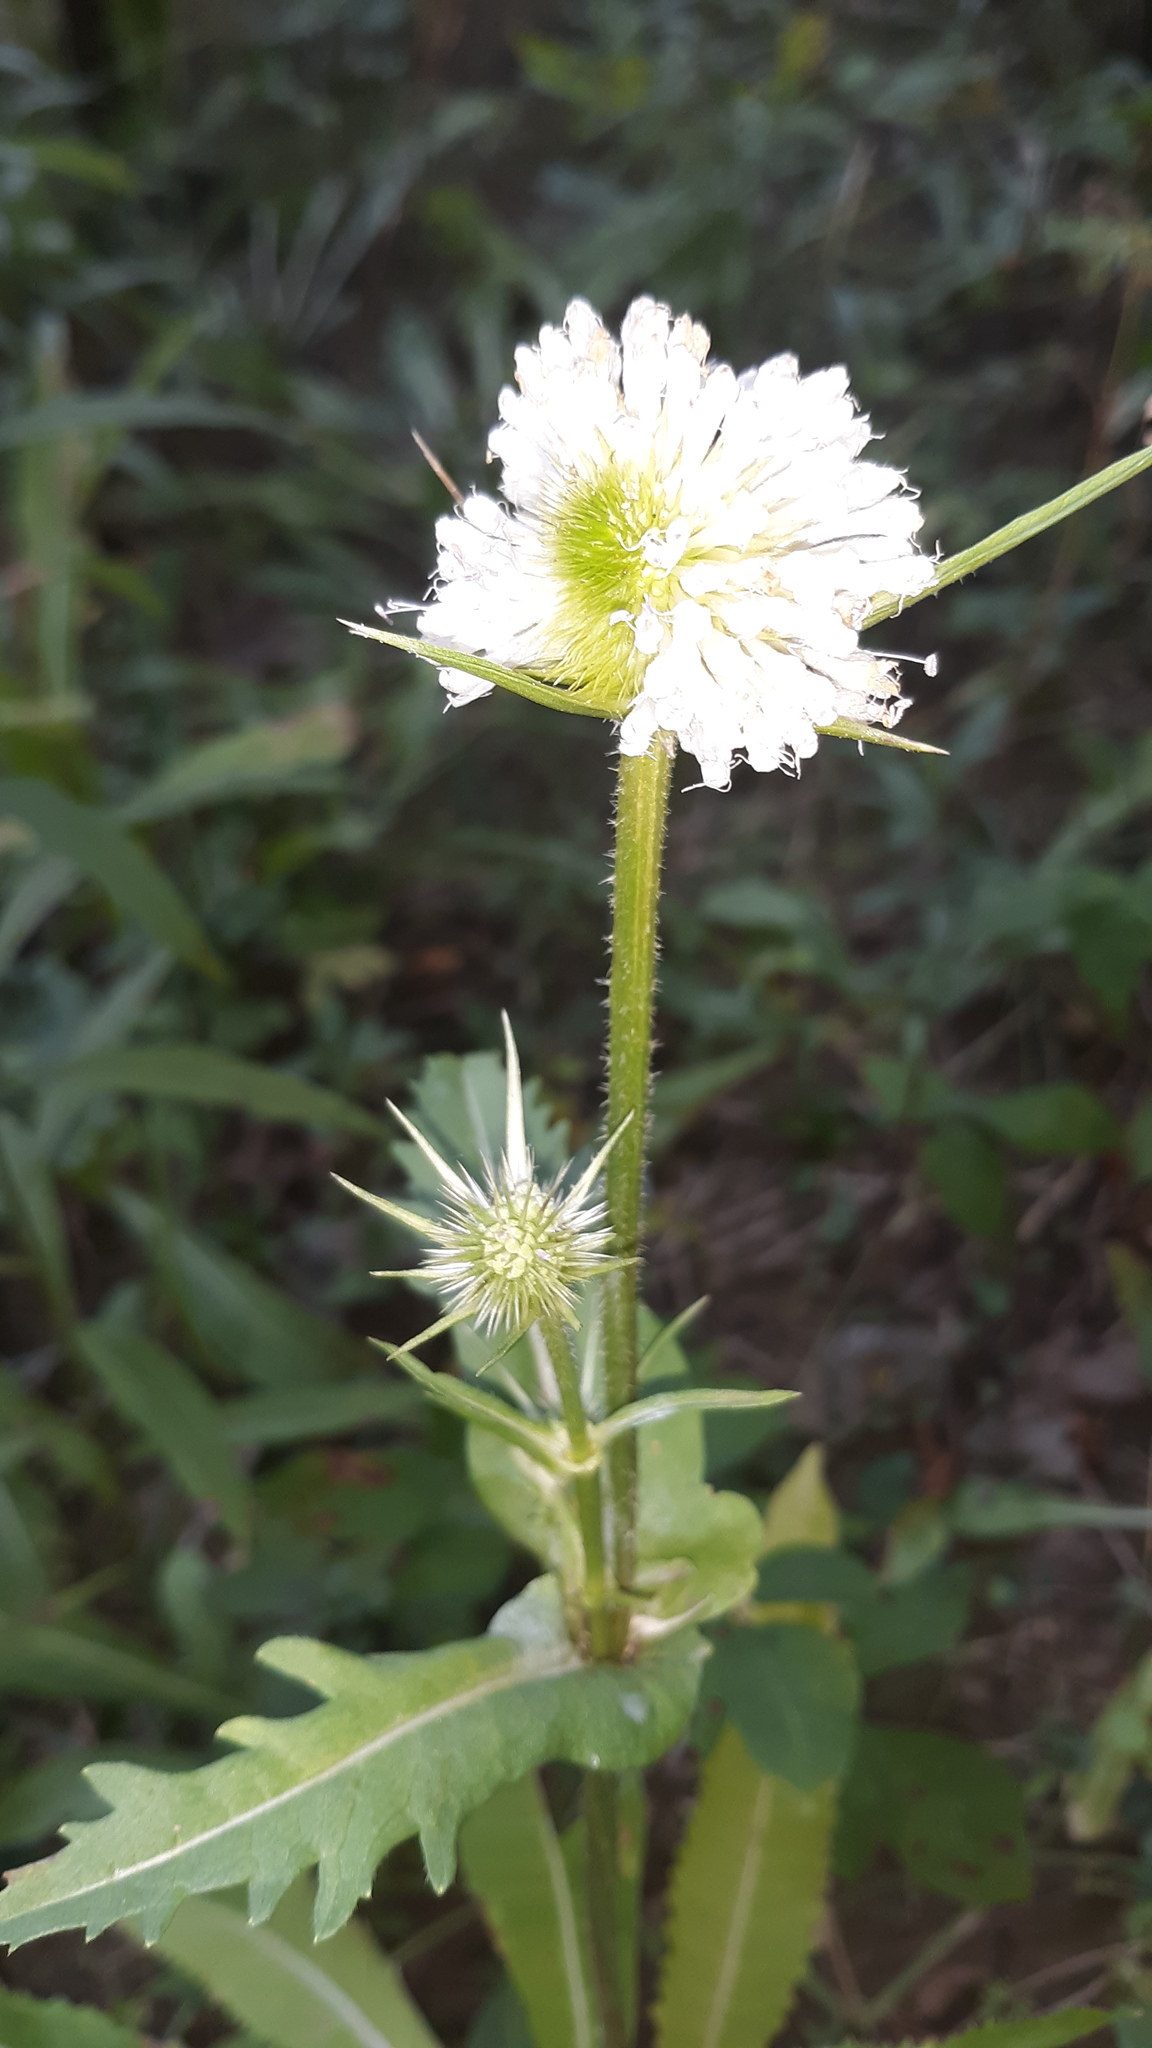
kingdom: Plantae
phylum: Tracheophyta
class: Magnoliopsida
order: Dipsacales
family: Caprifoliaceae
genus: Dipsacus
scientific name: Dipsacus laciniatus
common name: Cut-leaved teasel
